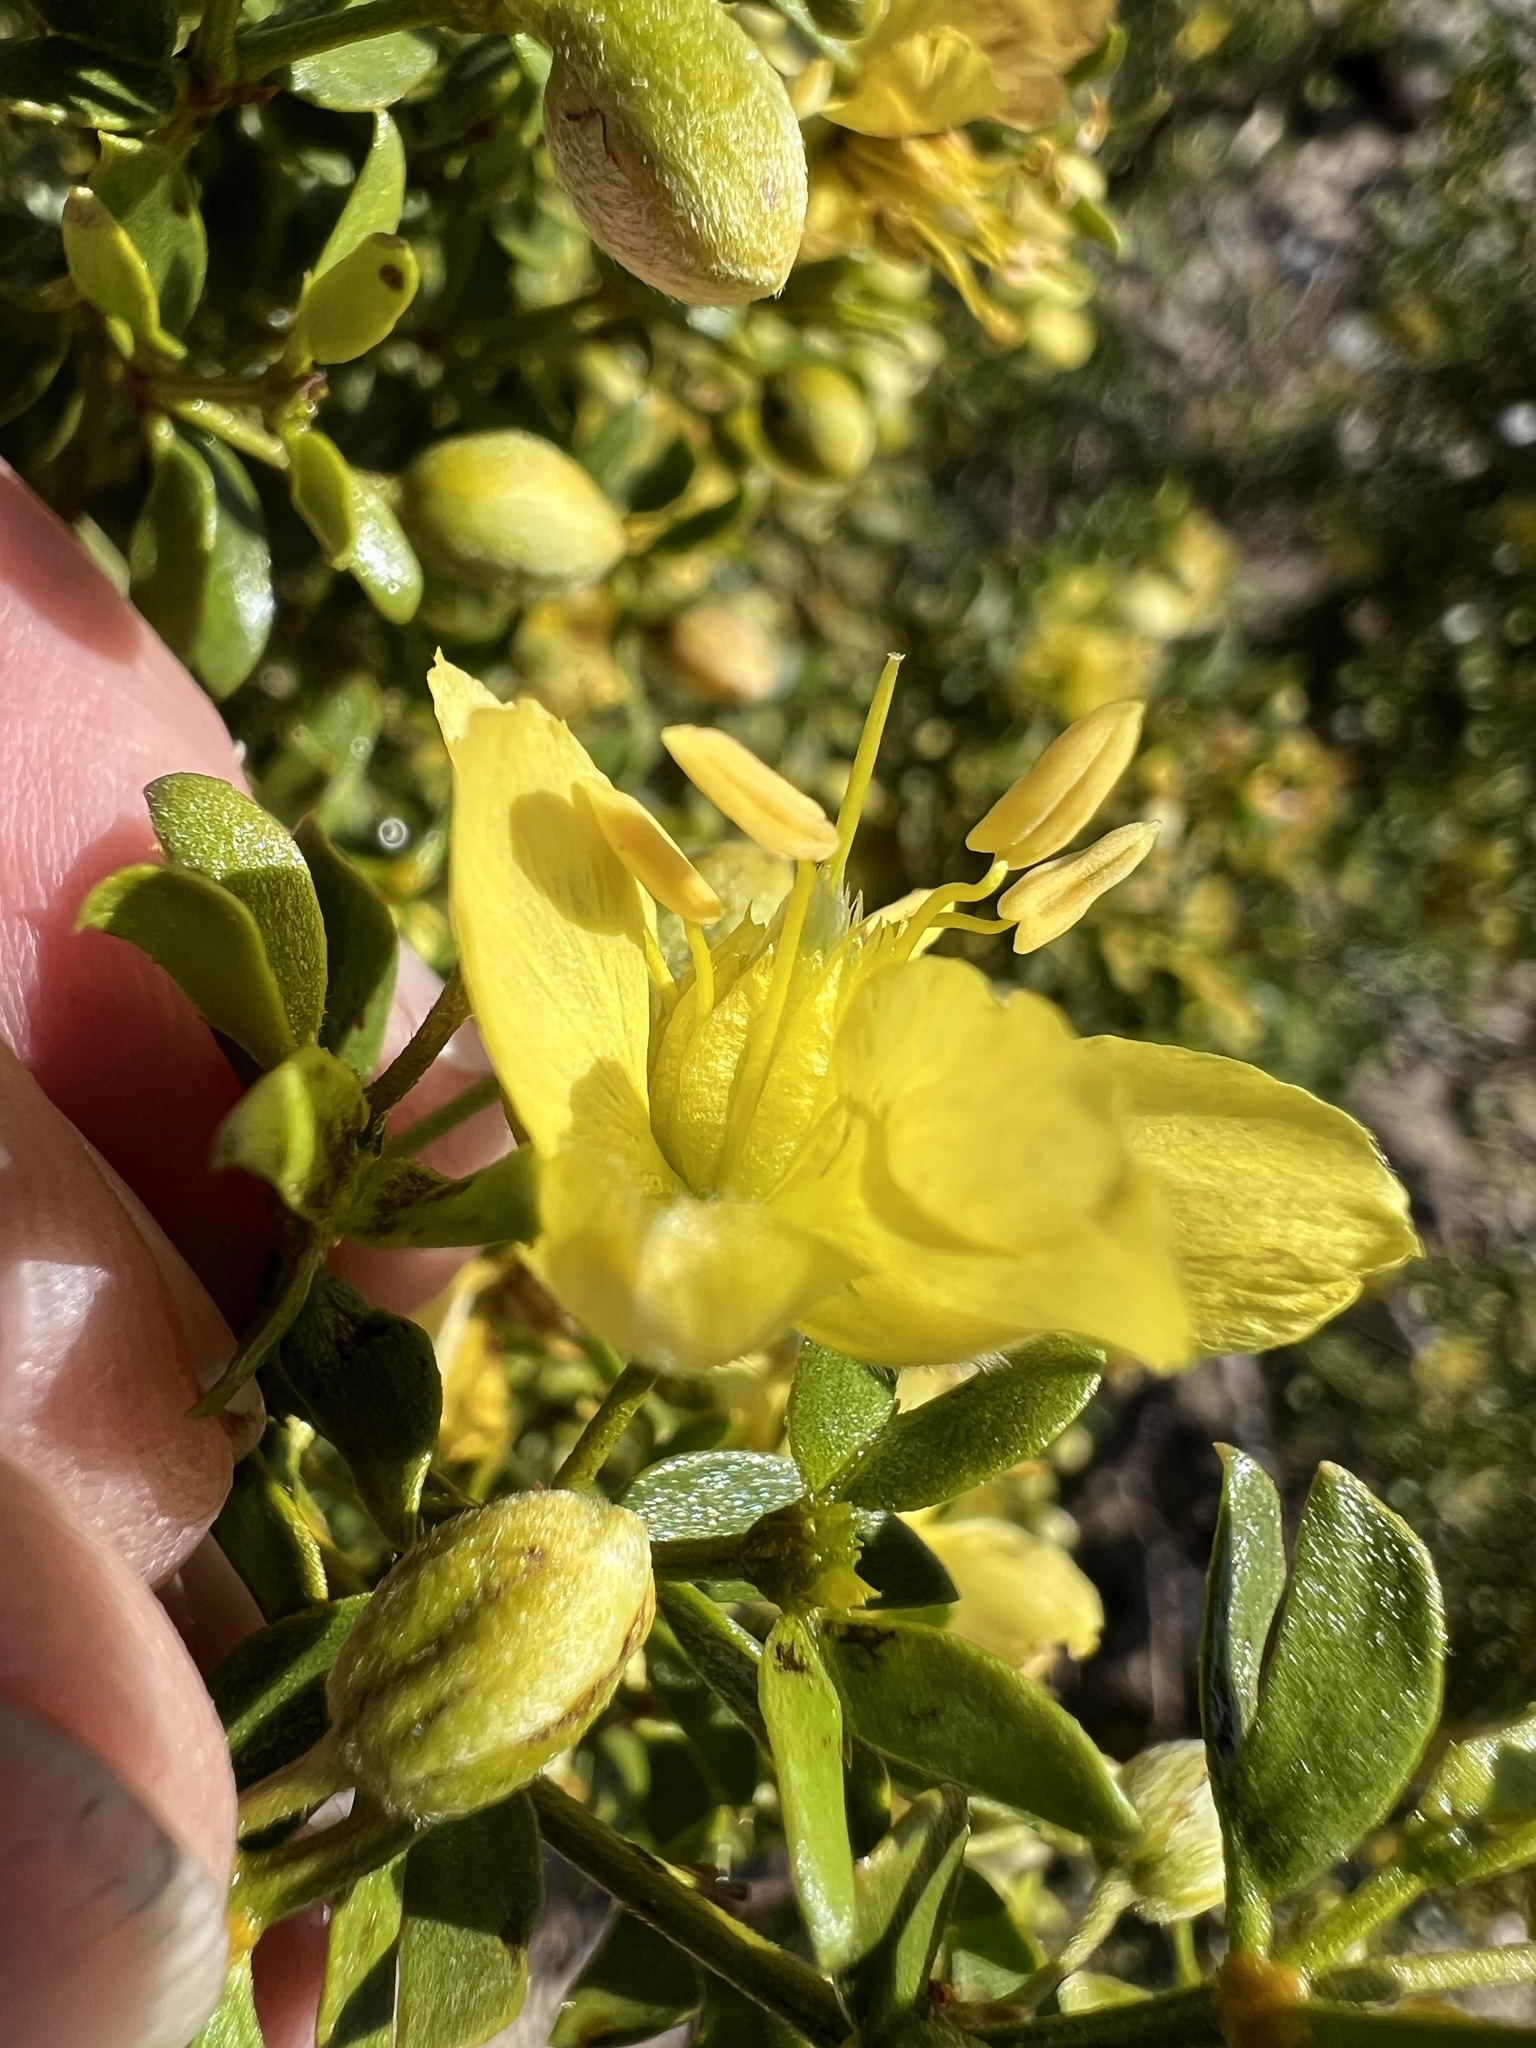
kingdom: Plantae
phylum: Tracheophyta
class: Magnoliopsida
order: Zygophyllales
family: Zygophyllaceae
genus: Larrea
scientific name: Larrea tridentata
